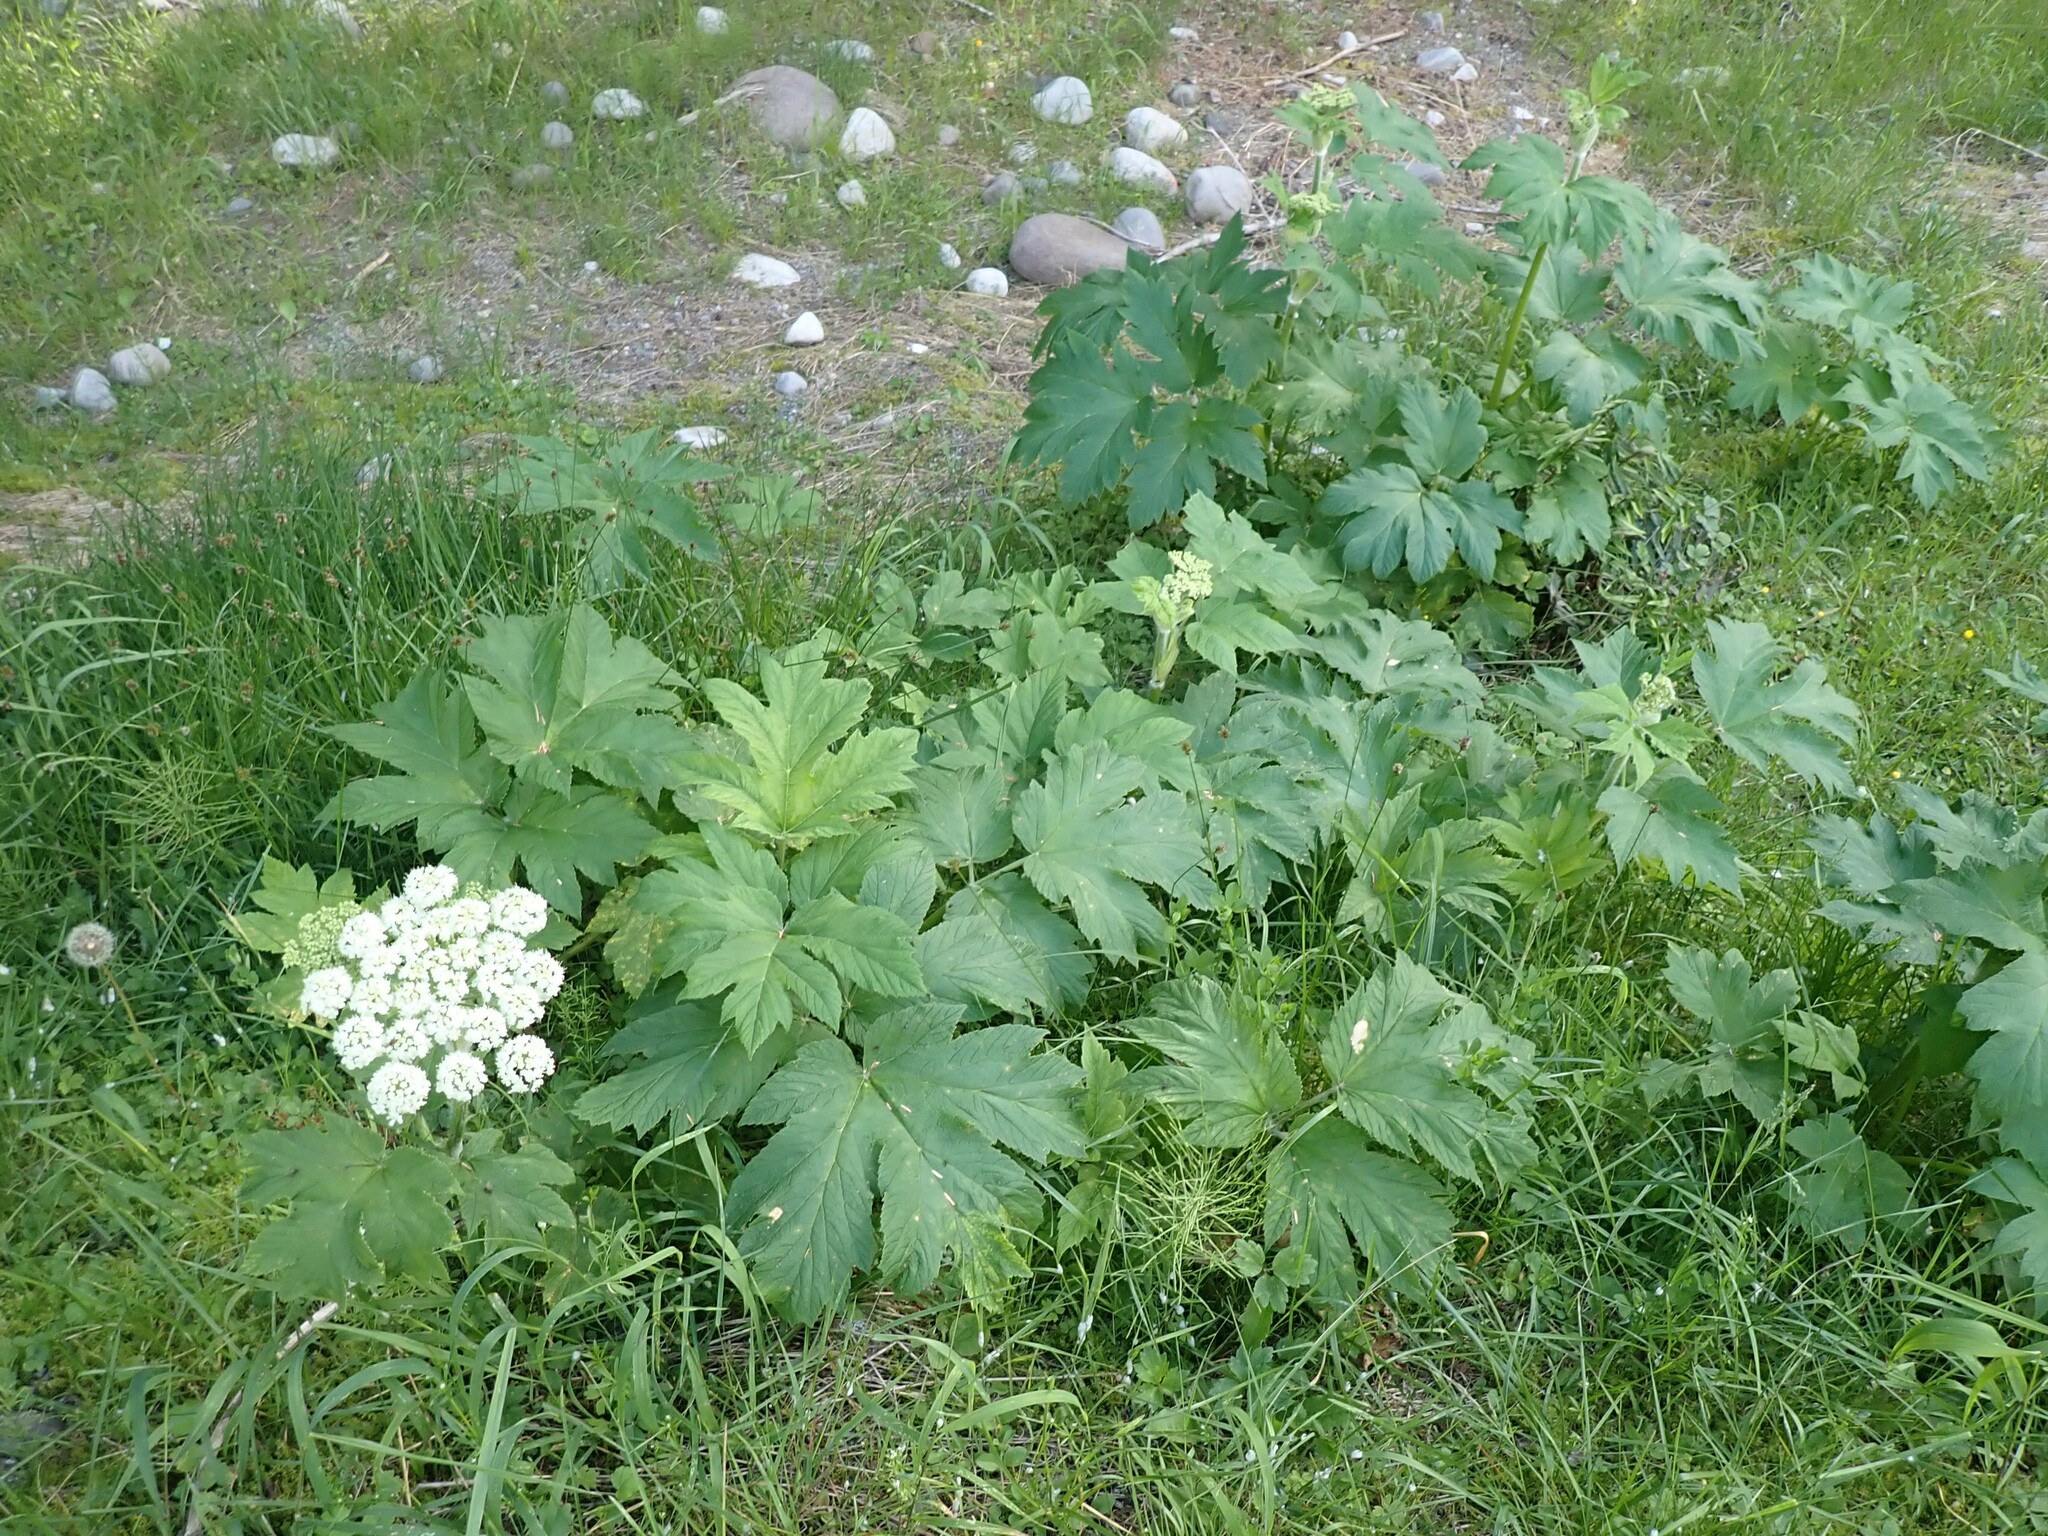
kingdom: Plantae
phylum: Tracheophyta
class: Magnoliopsida
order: Apiales
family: Apiaceae
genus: Heracleum
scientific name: Heracleum maximum
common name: American cow parsnip
